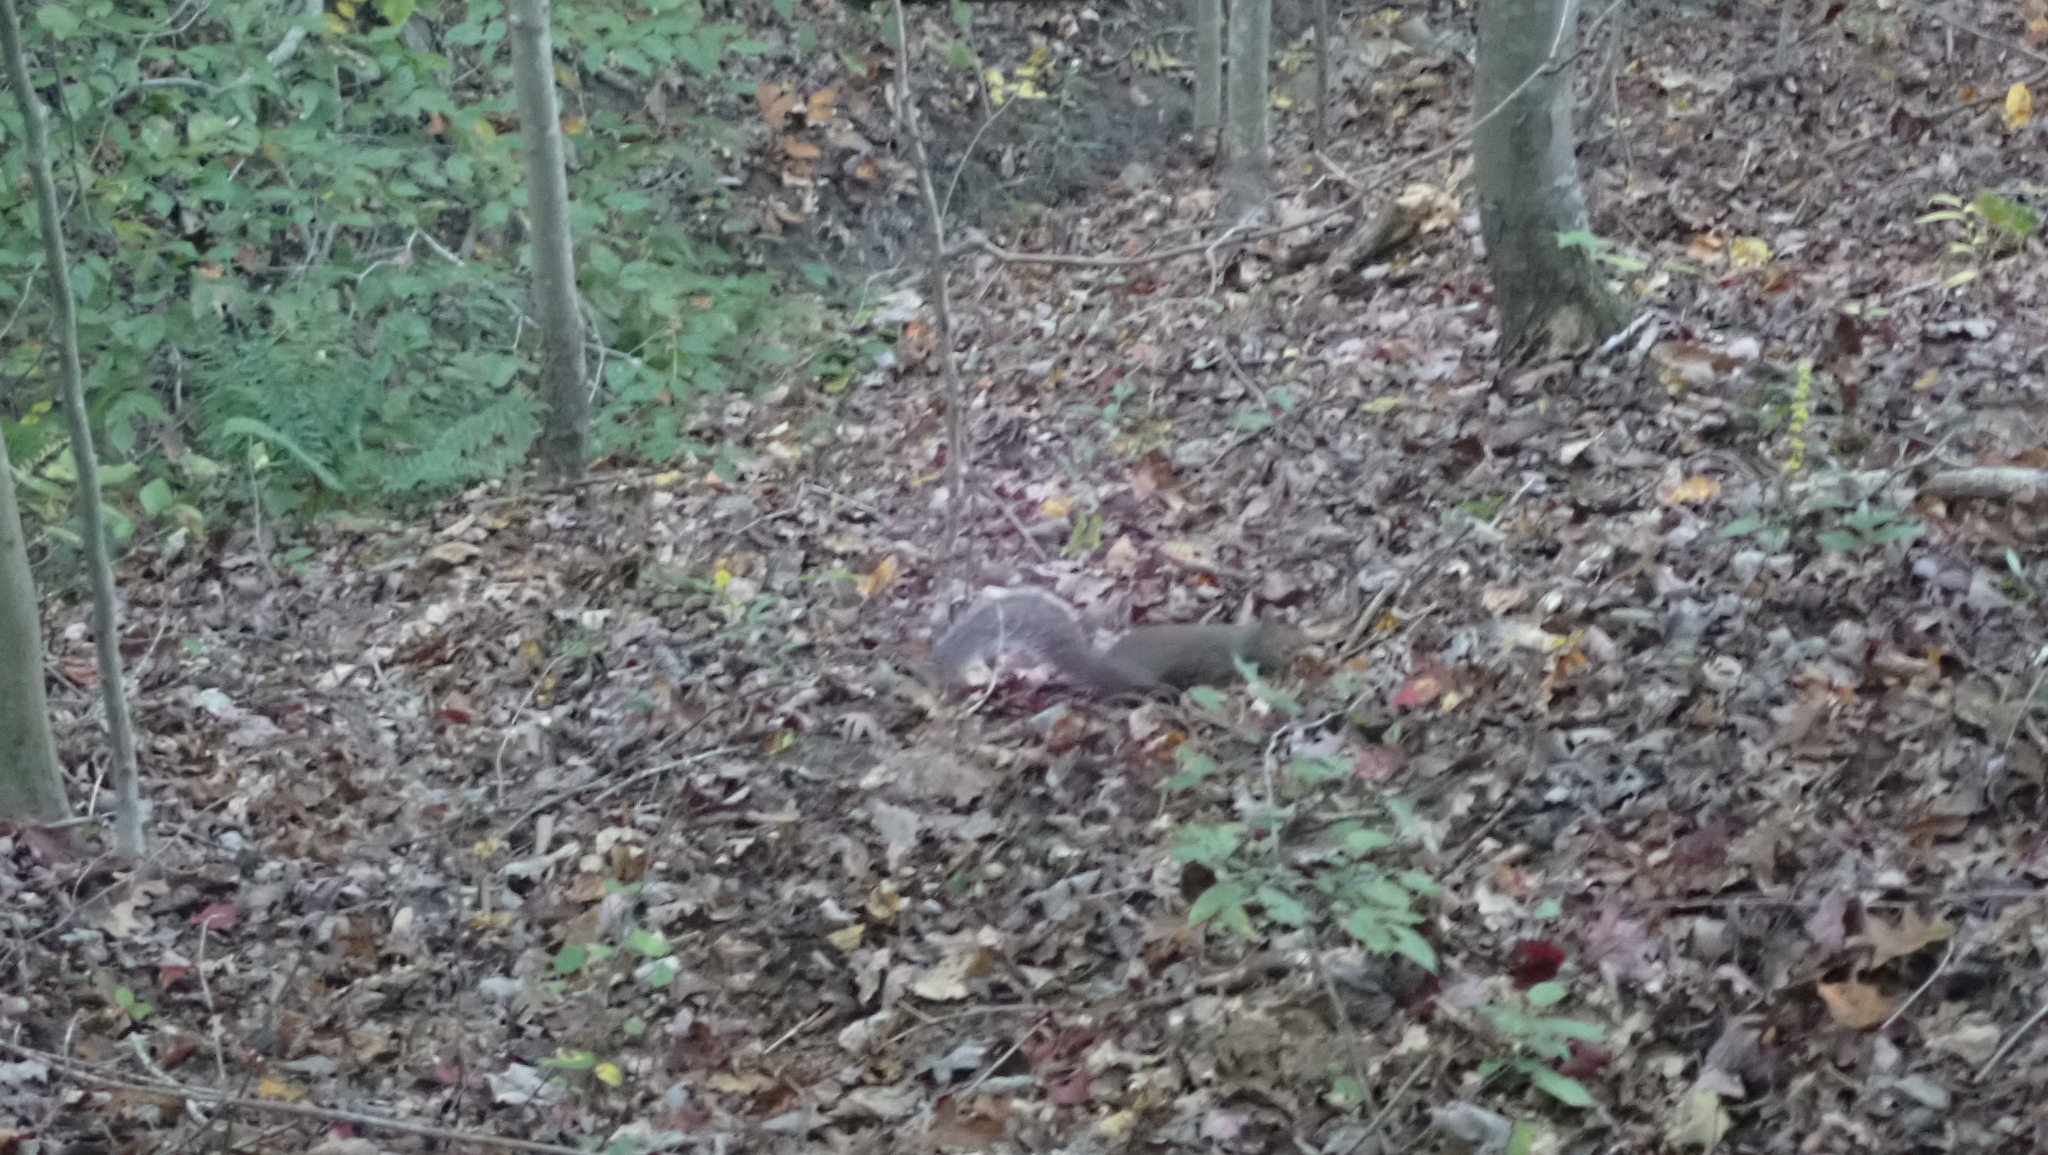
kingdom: Animalia
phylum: Chordata
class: Mammalia
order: Rodentia
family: Sciuridae
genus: Sciurus
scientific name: Sciurus carolinensis
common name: Eastern gray squirrel
